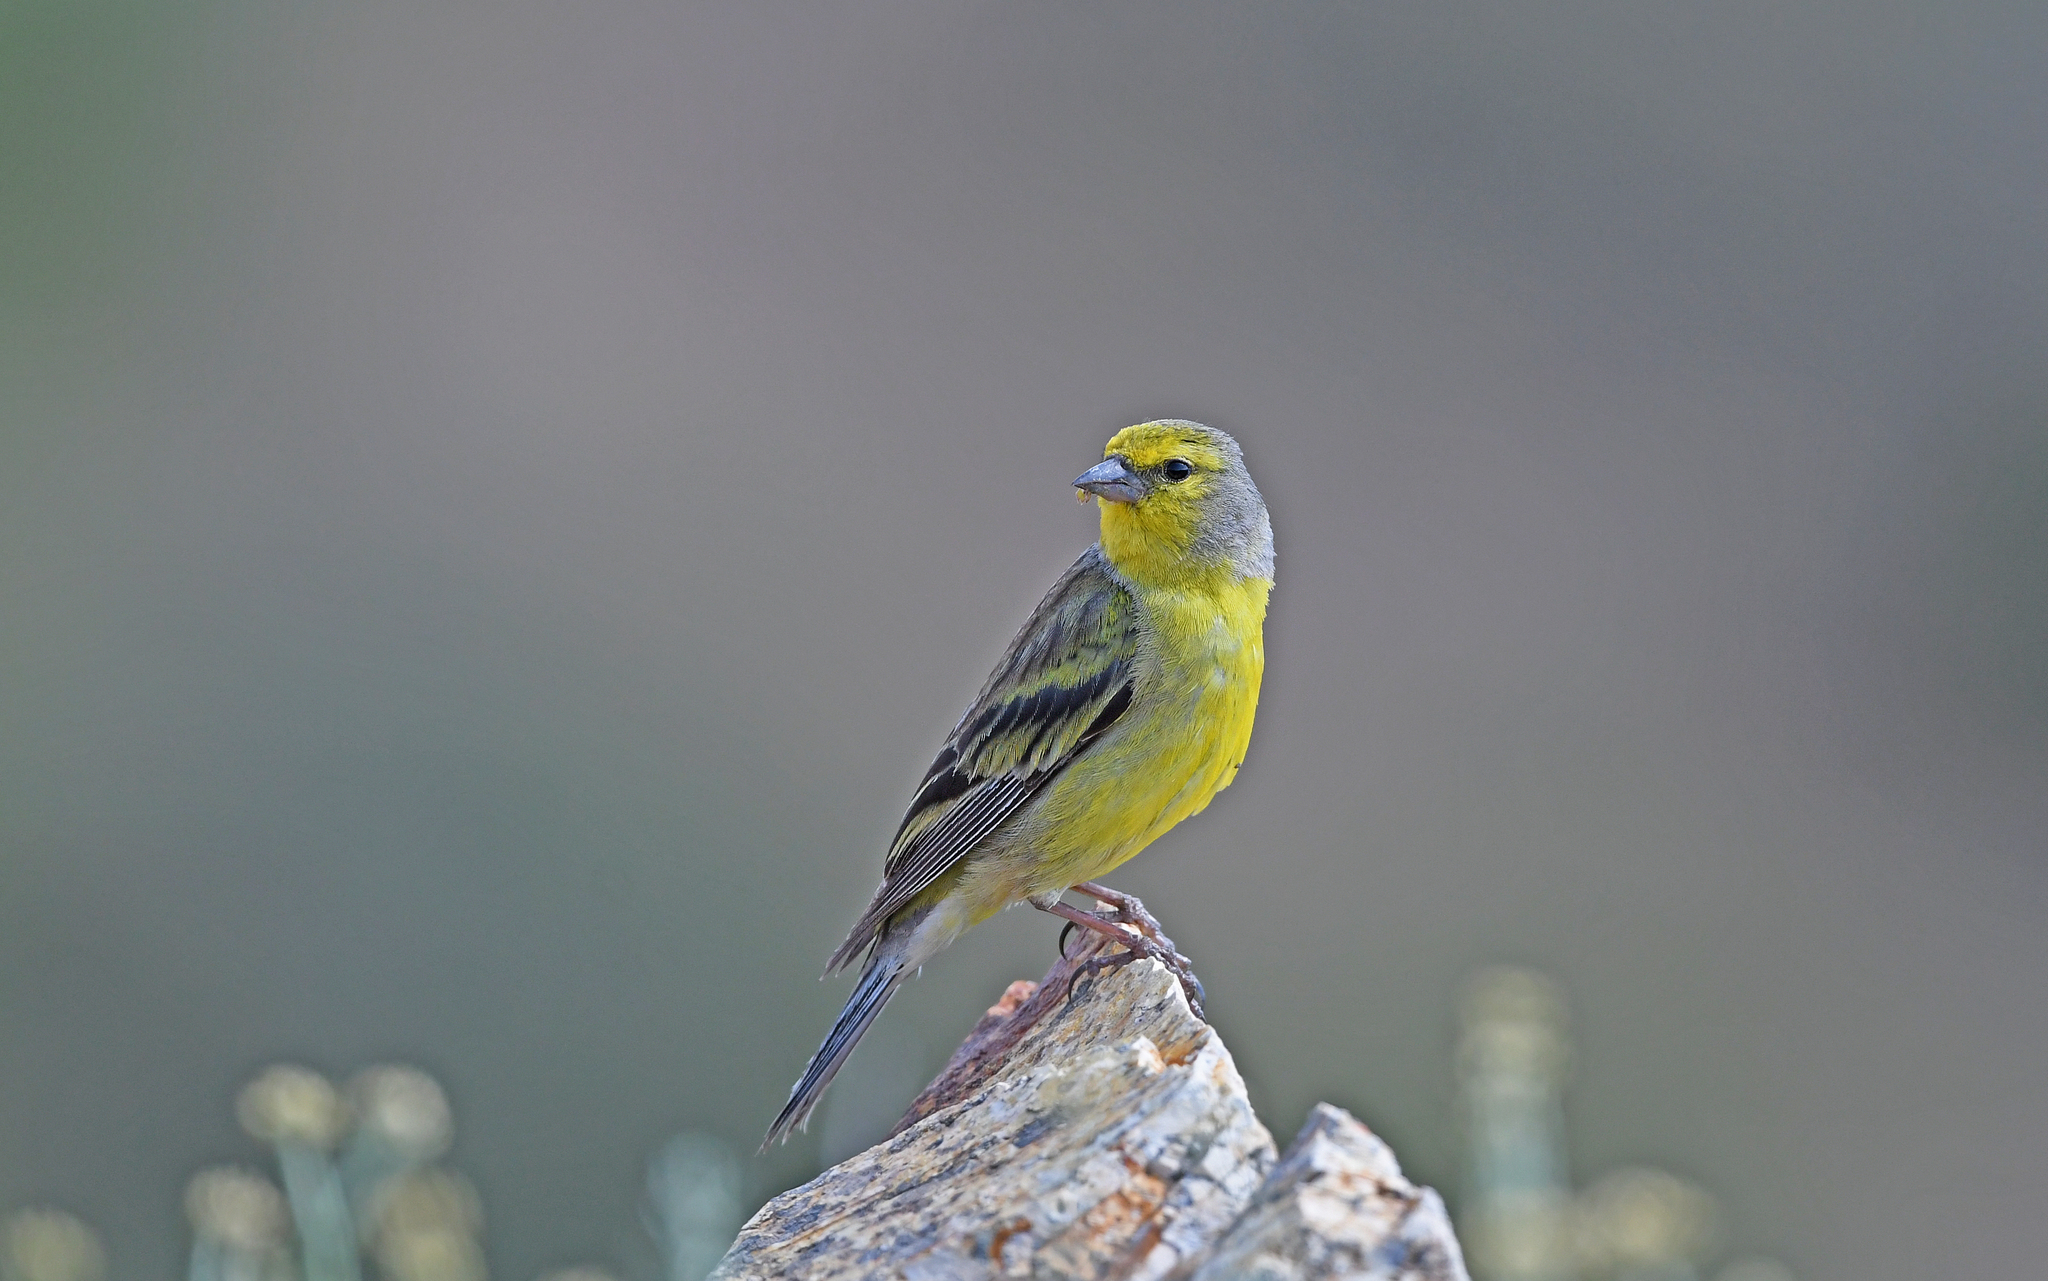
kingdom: Animalia
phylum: Chordata
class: Aves
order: Passeriformes
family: Fringillidae
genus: Carduelis
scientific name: Carduelis corsicana
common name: Corsican finch
